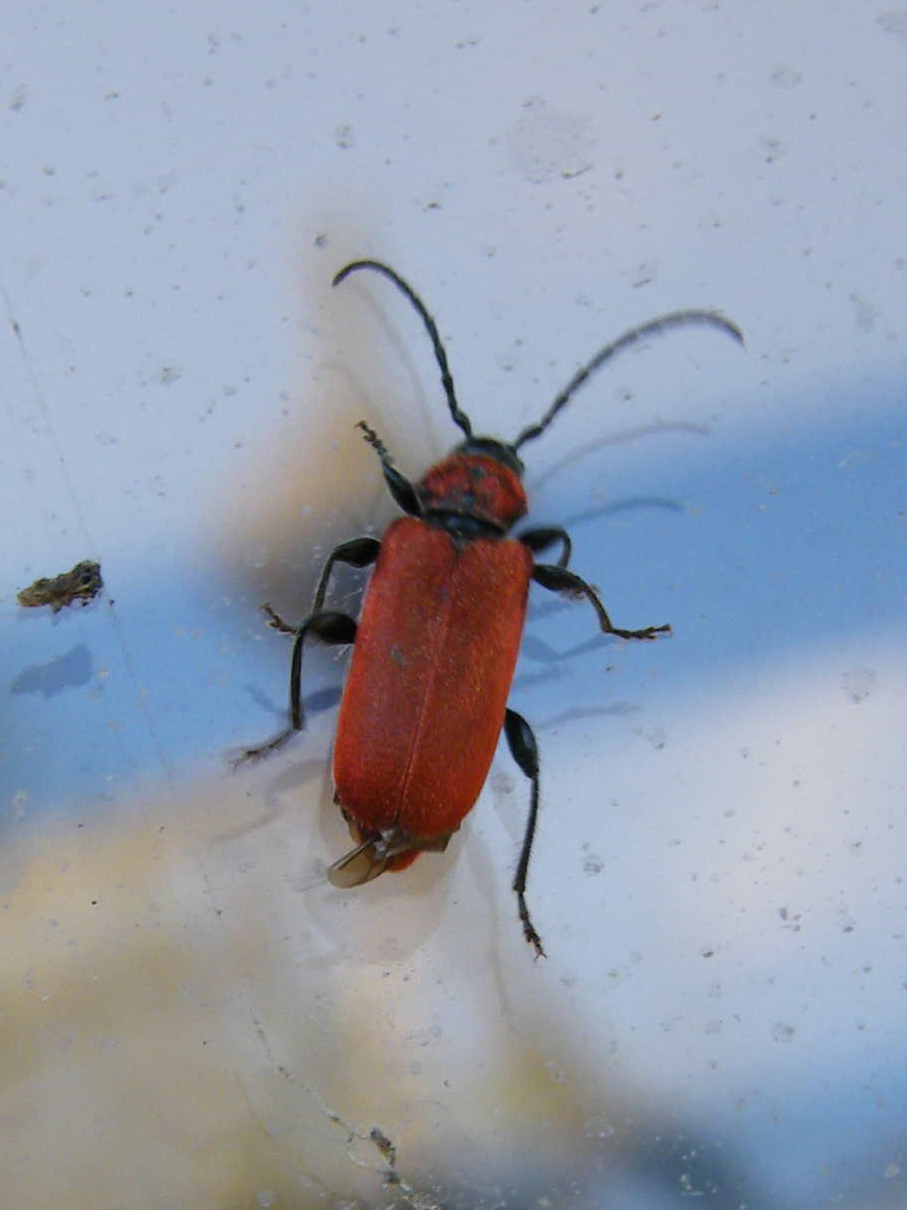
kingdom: Animalia
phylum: Arthropoda
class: Insecta
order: Coleoptera
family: Cerambycidae
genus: Pyrrhidium
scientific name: Pyrrhidium sanguineum
